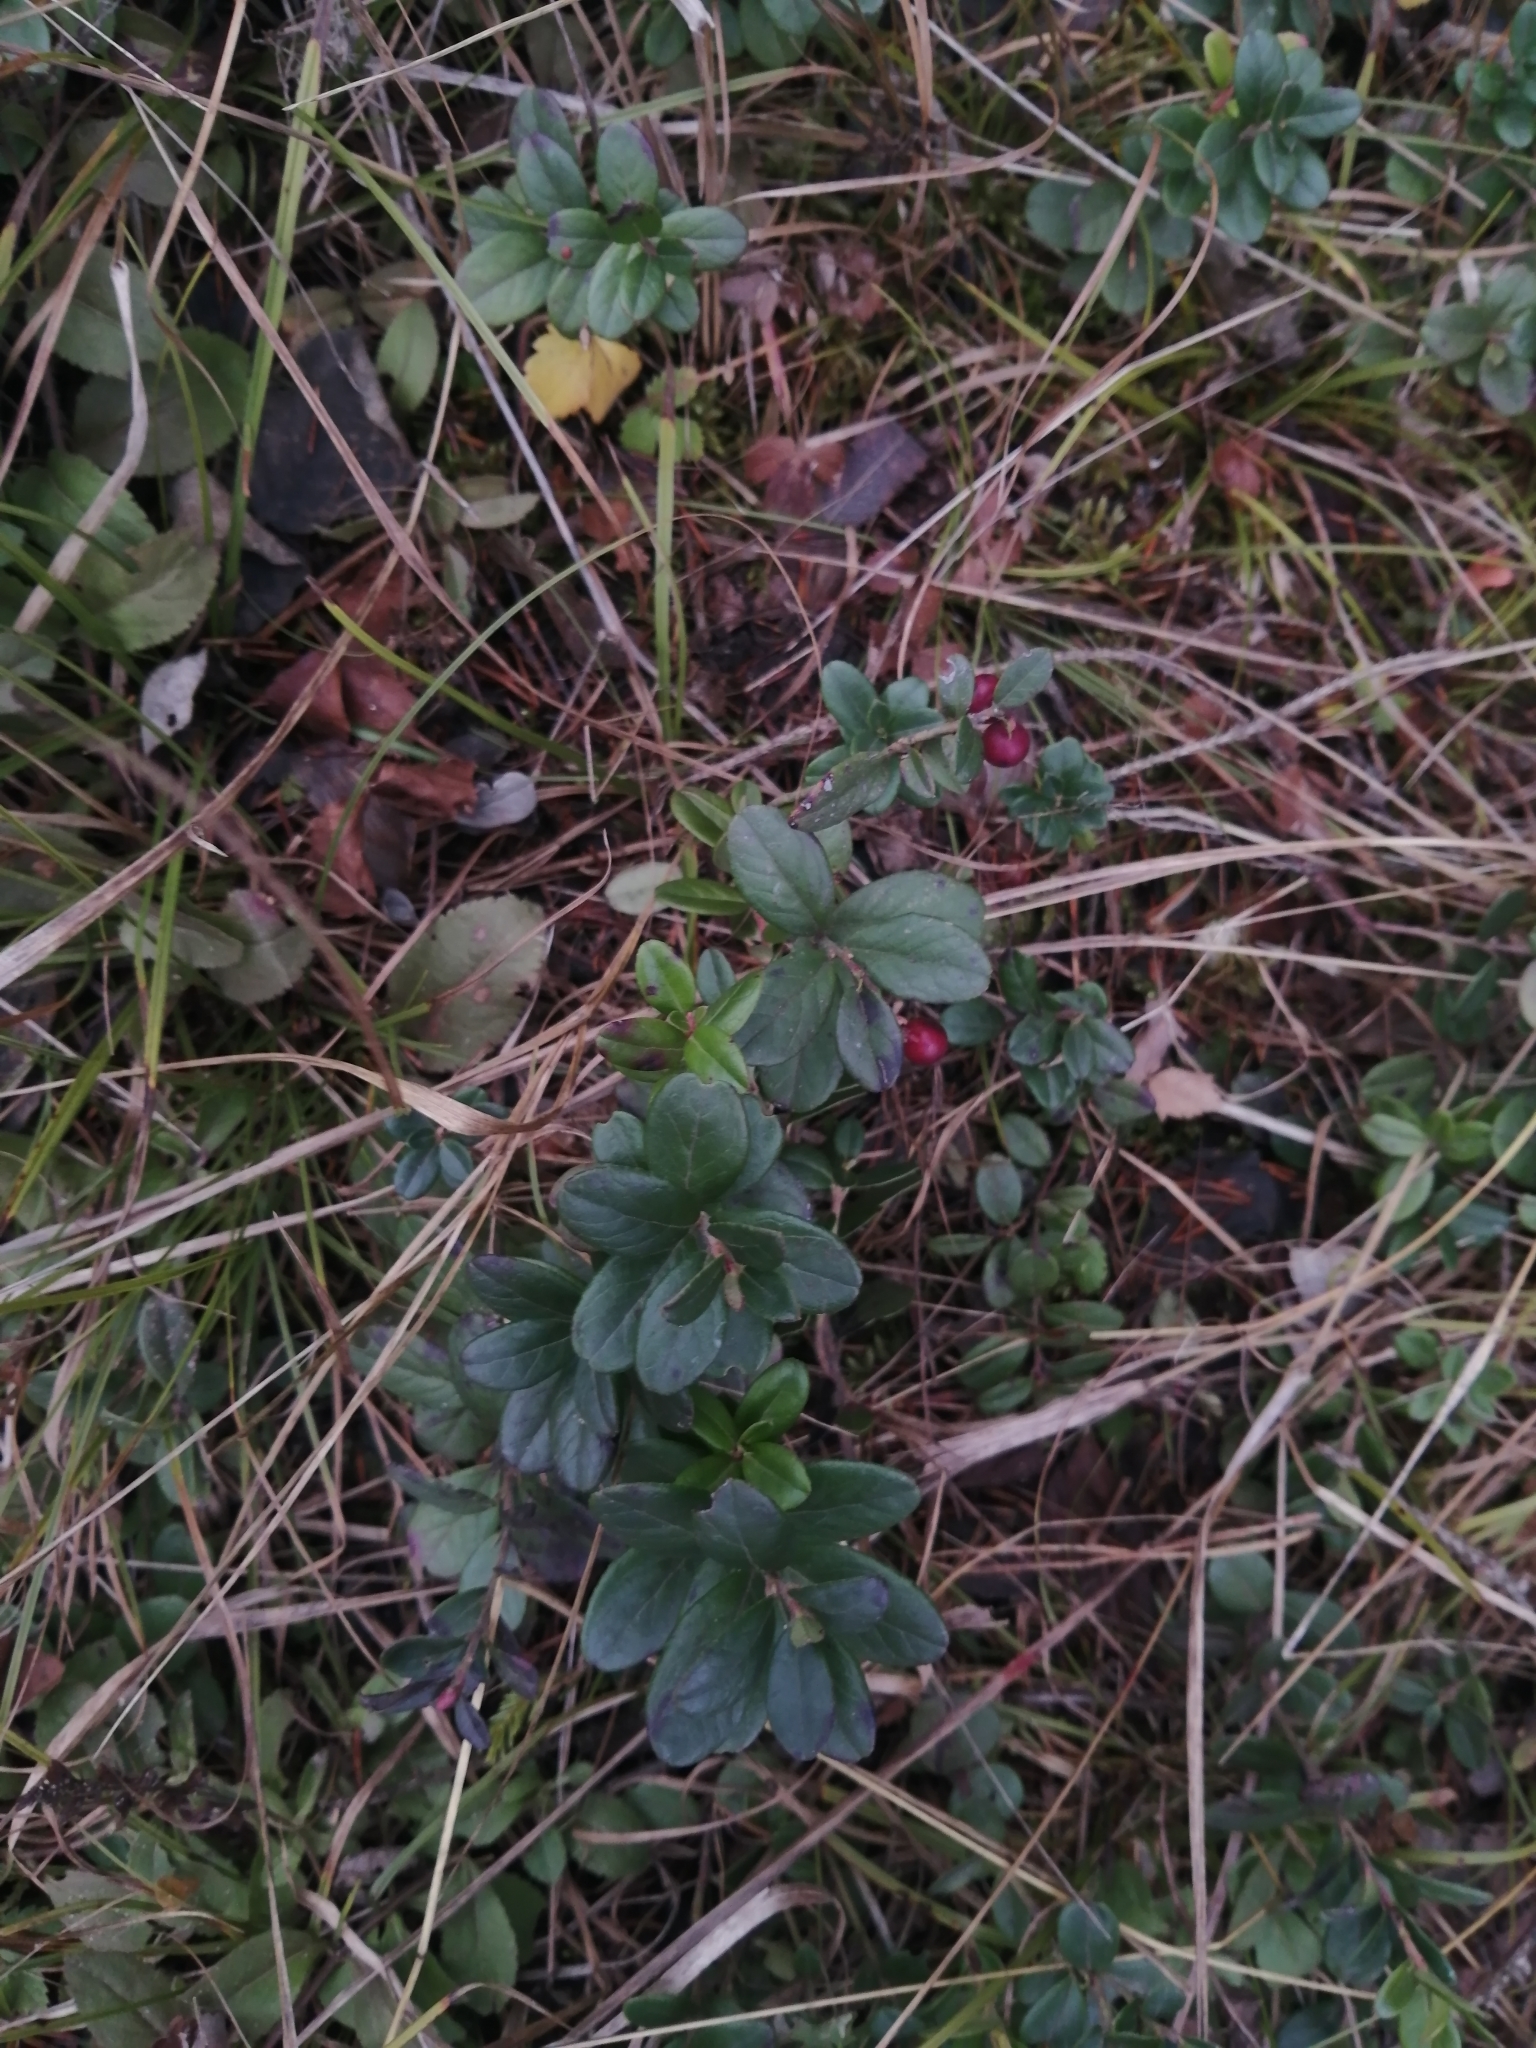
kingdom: Plantae
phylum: Tracheophyta
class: Magnoliopsida
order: Ericales
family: Ericaceae
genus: Vaccinium
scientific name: Vaccinium vitis-idaea
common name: Cowberry
